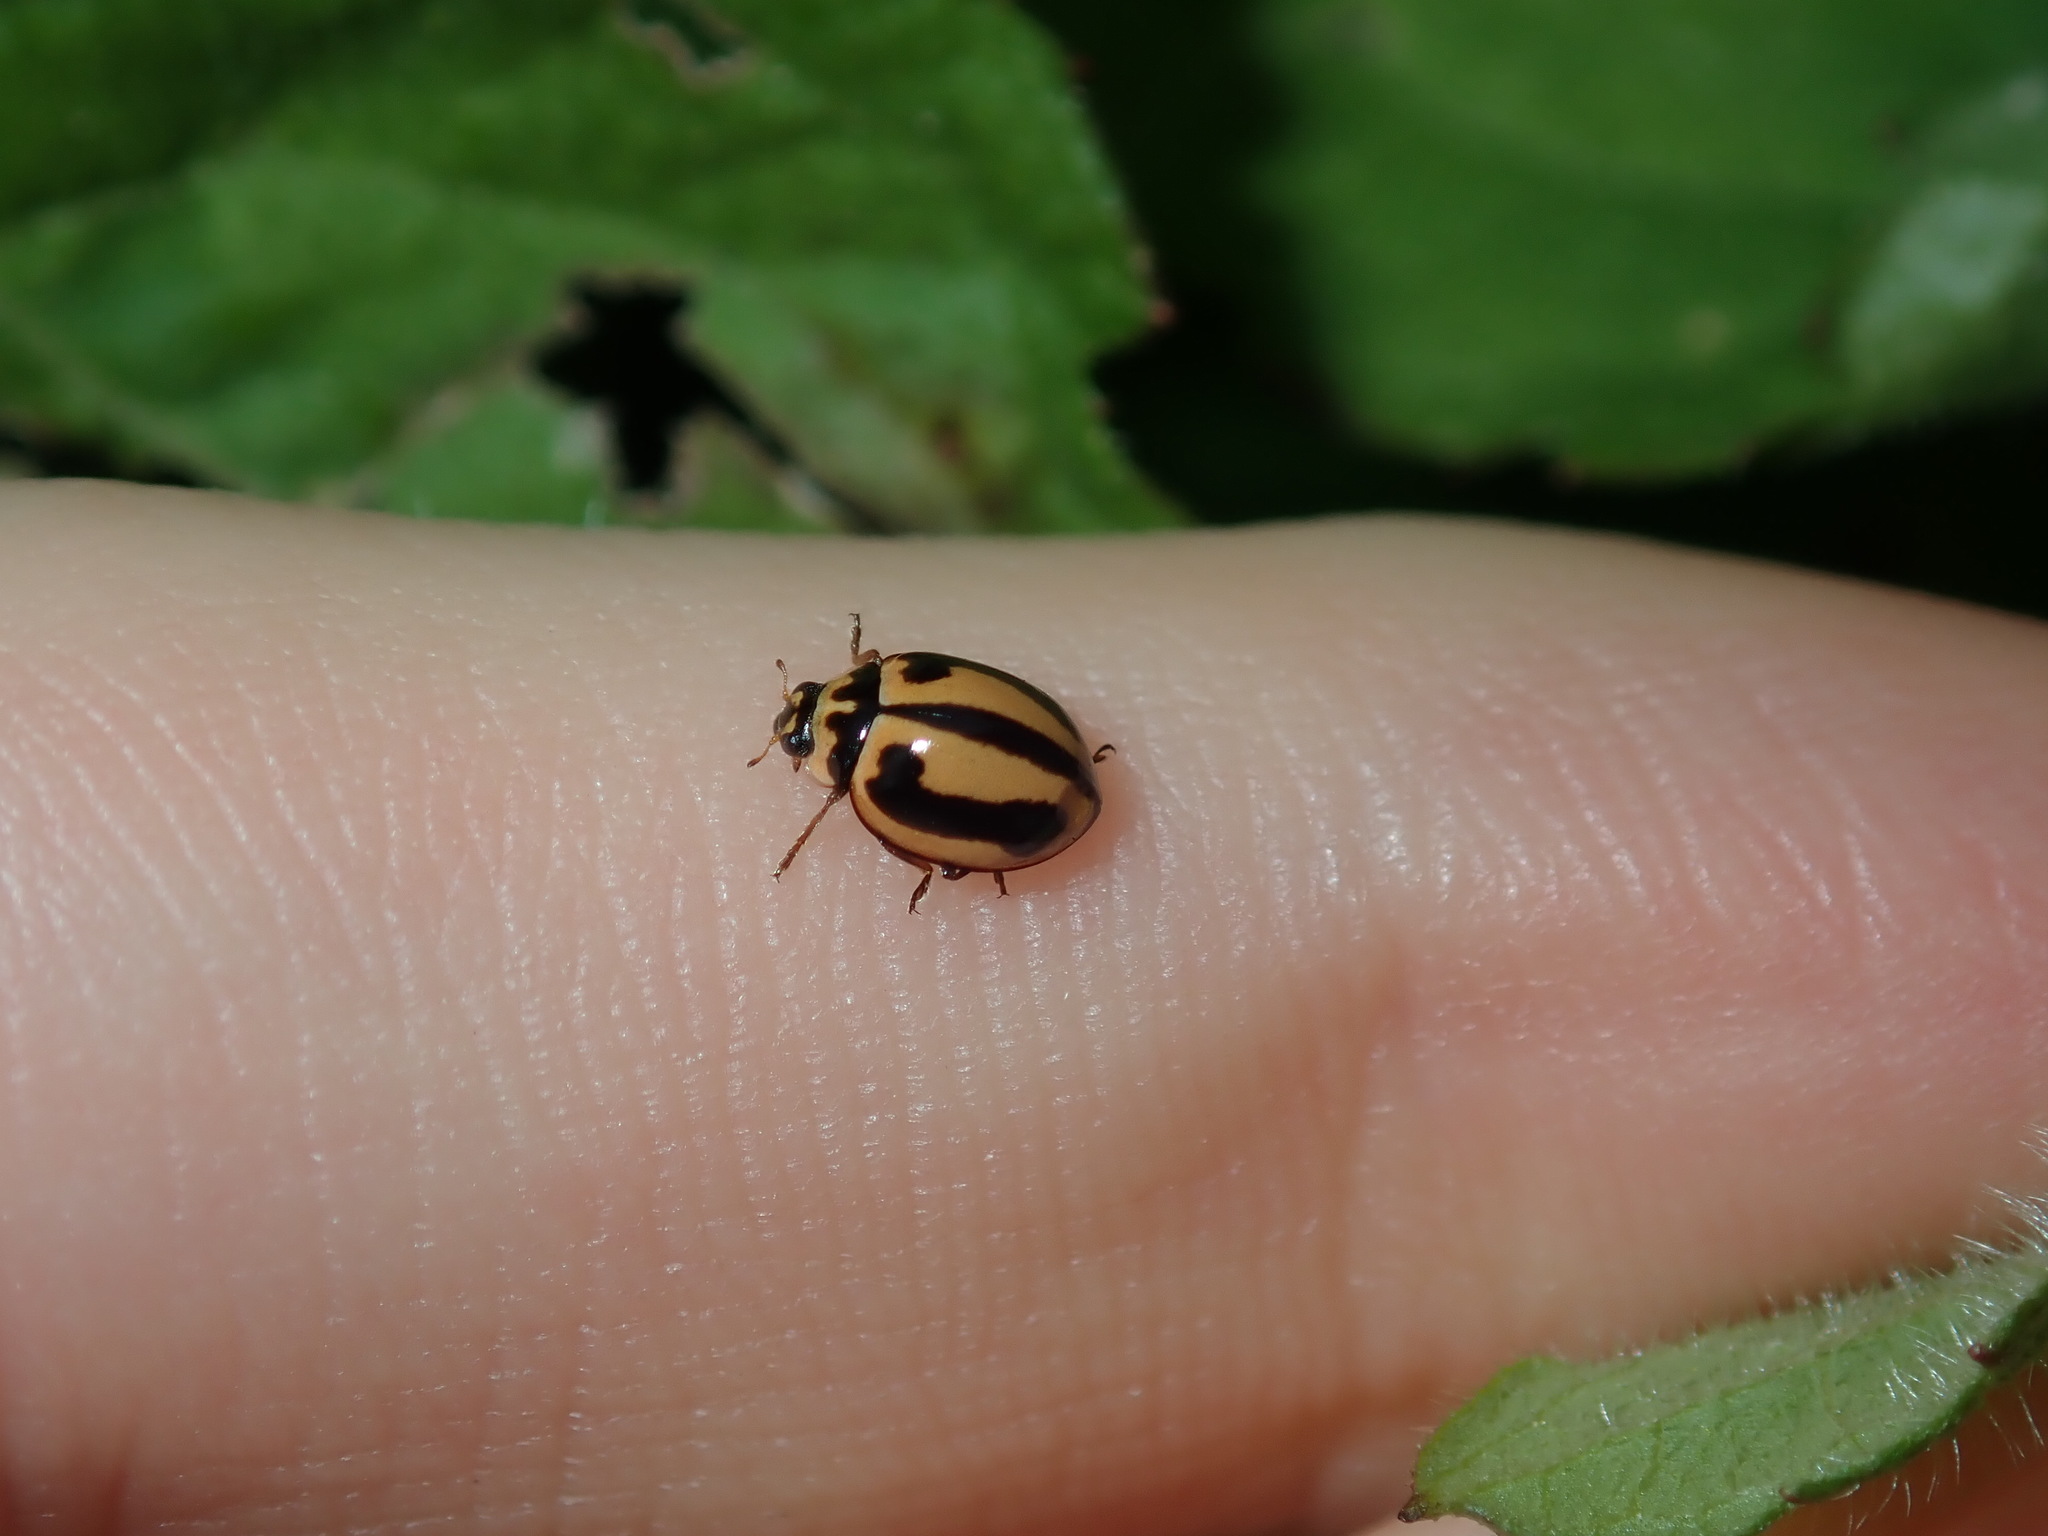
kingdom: Animalia
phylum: Arthropoda
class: Insecta
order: Coleoptera
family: Coccinellidae
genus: Micraspis
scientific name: Micraspis frenata
